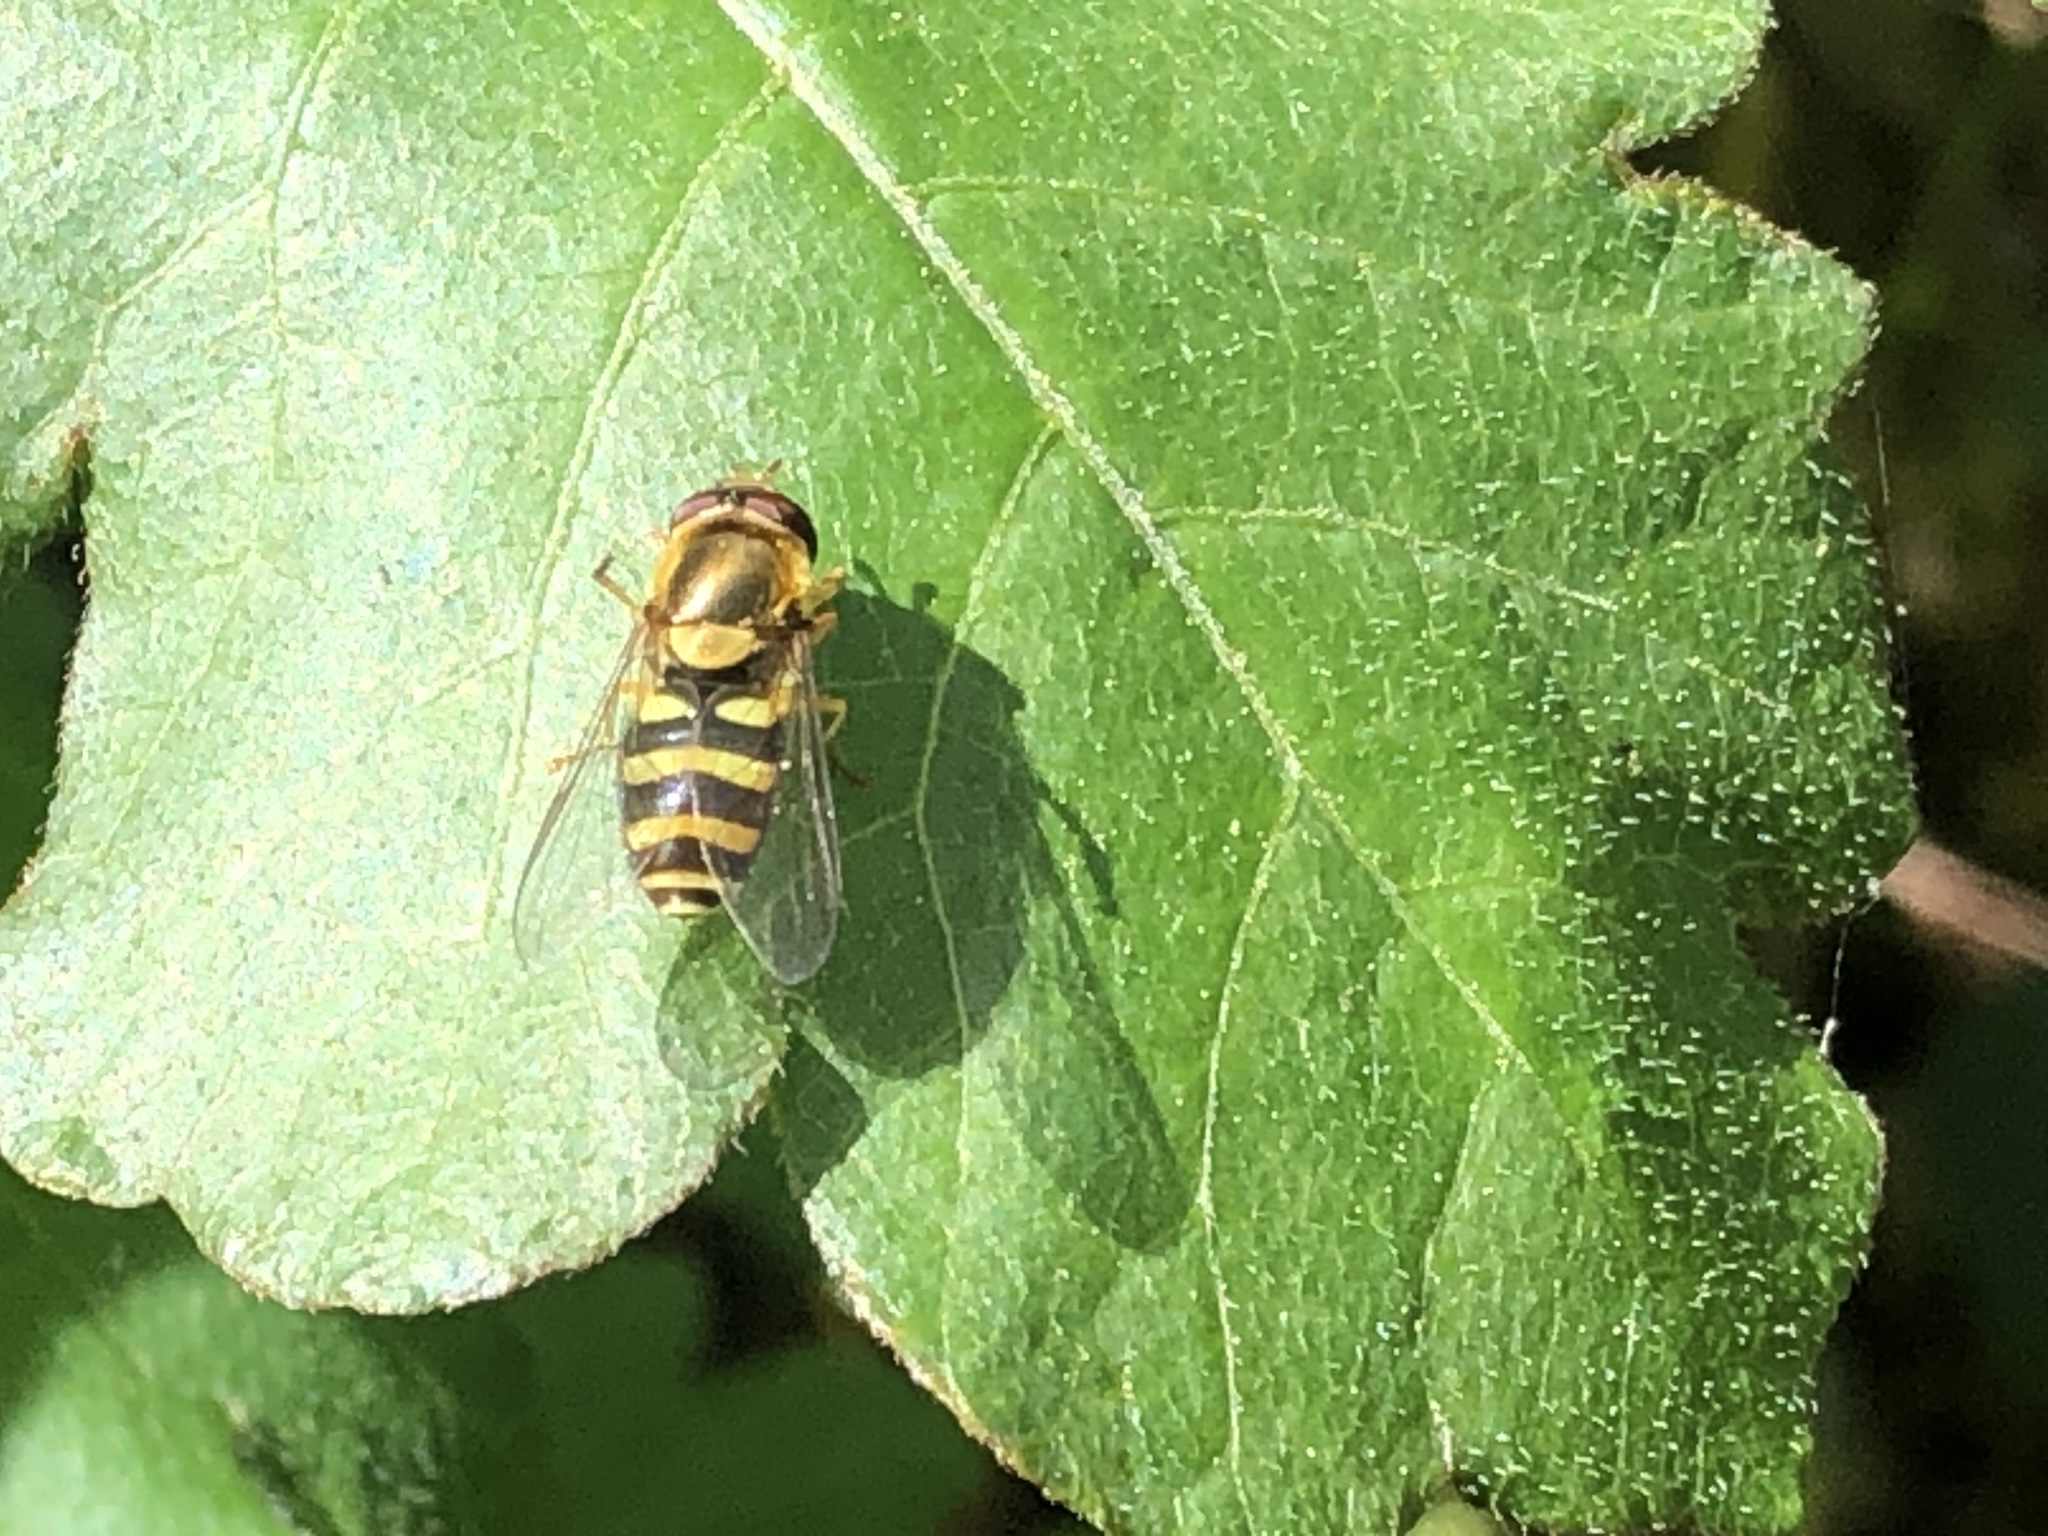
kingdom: Animalia
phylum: Arthropoda
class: Insecta
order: Diptera
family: Syrphidae
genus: Syrphus
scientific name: Syrphus opinator
